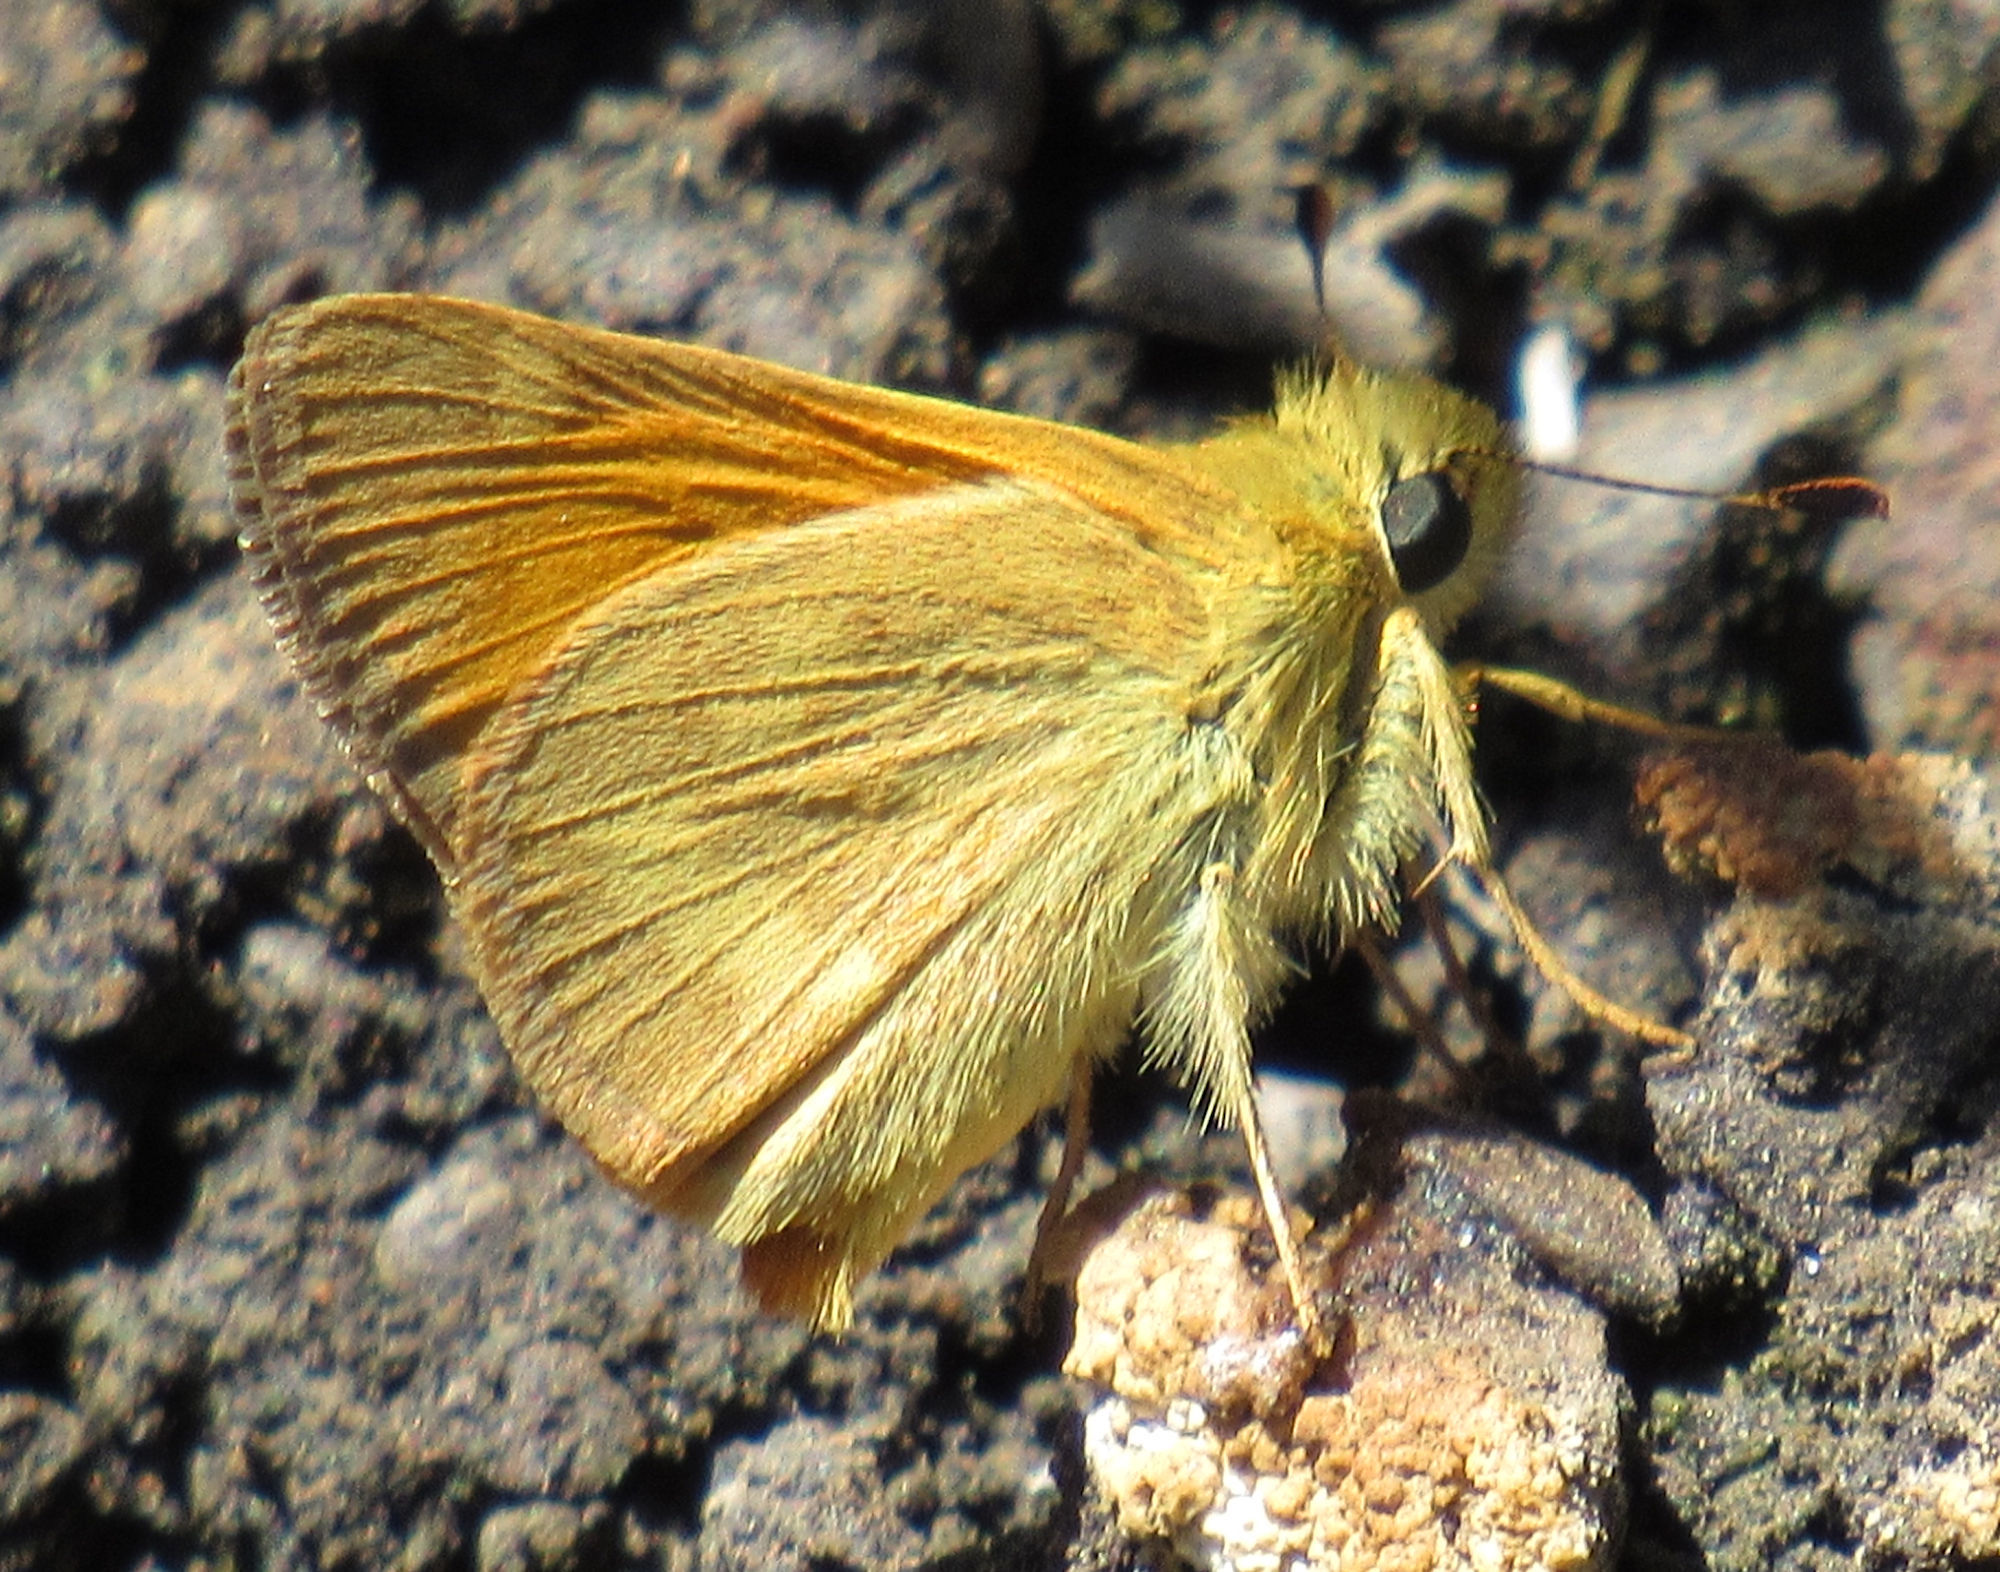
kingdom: Animalia
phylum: Arthropoda
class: Insecta
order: Lepidoptera
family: Hesperiidae
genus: Ochlodes
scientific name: Ochlodes sylvanoides
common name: Woodland skipper
